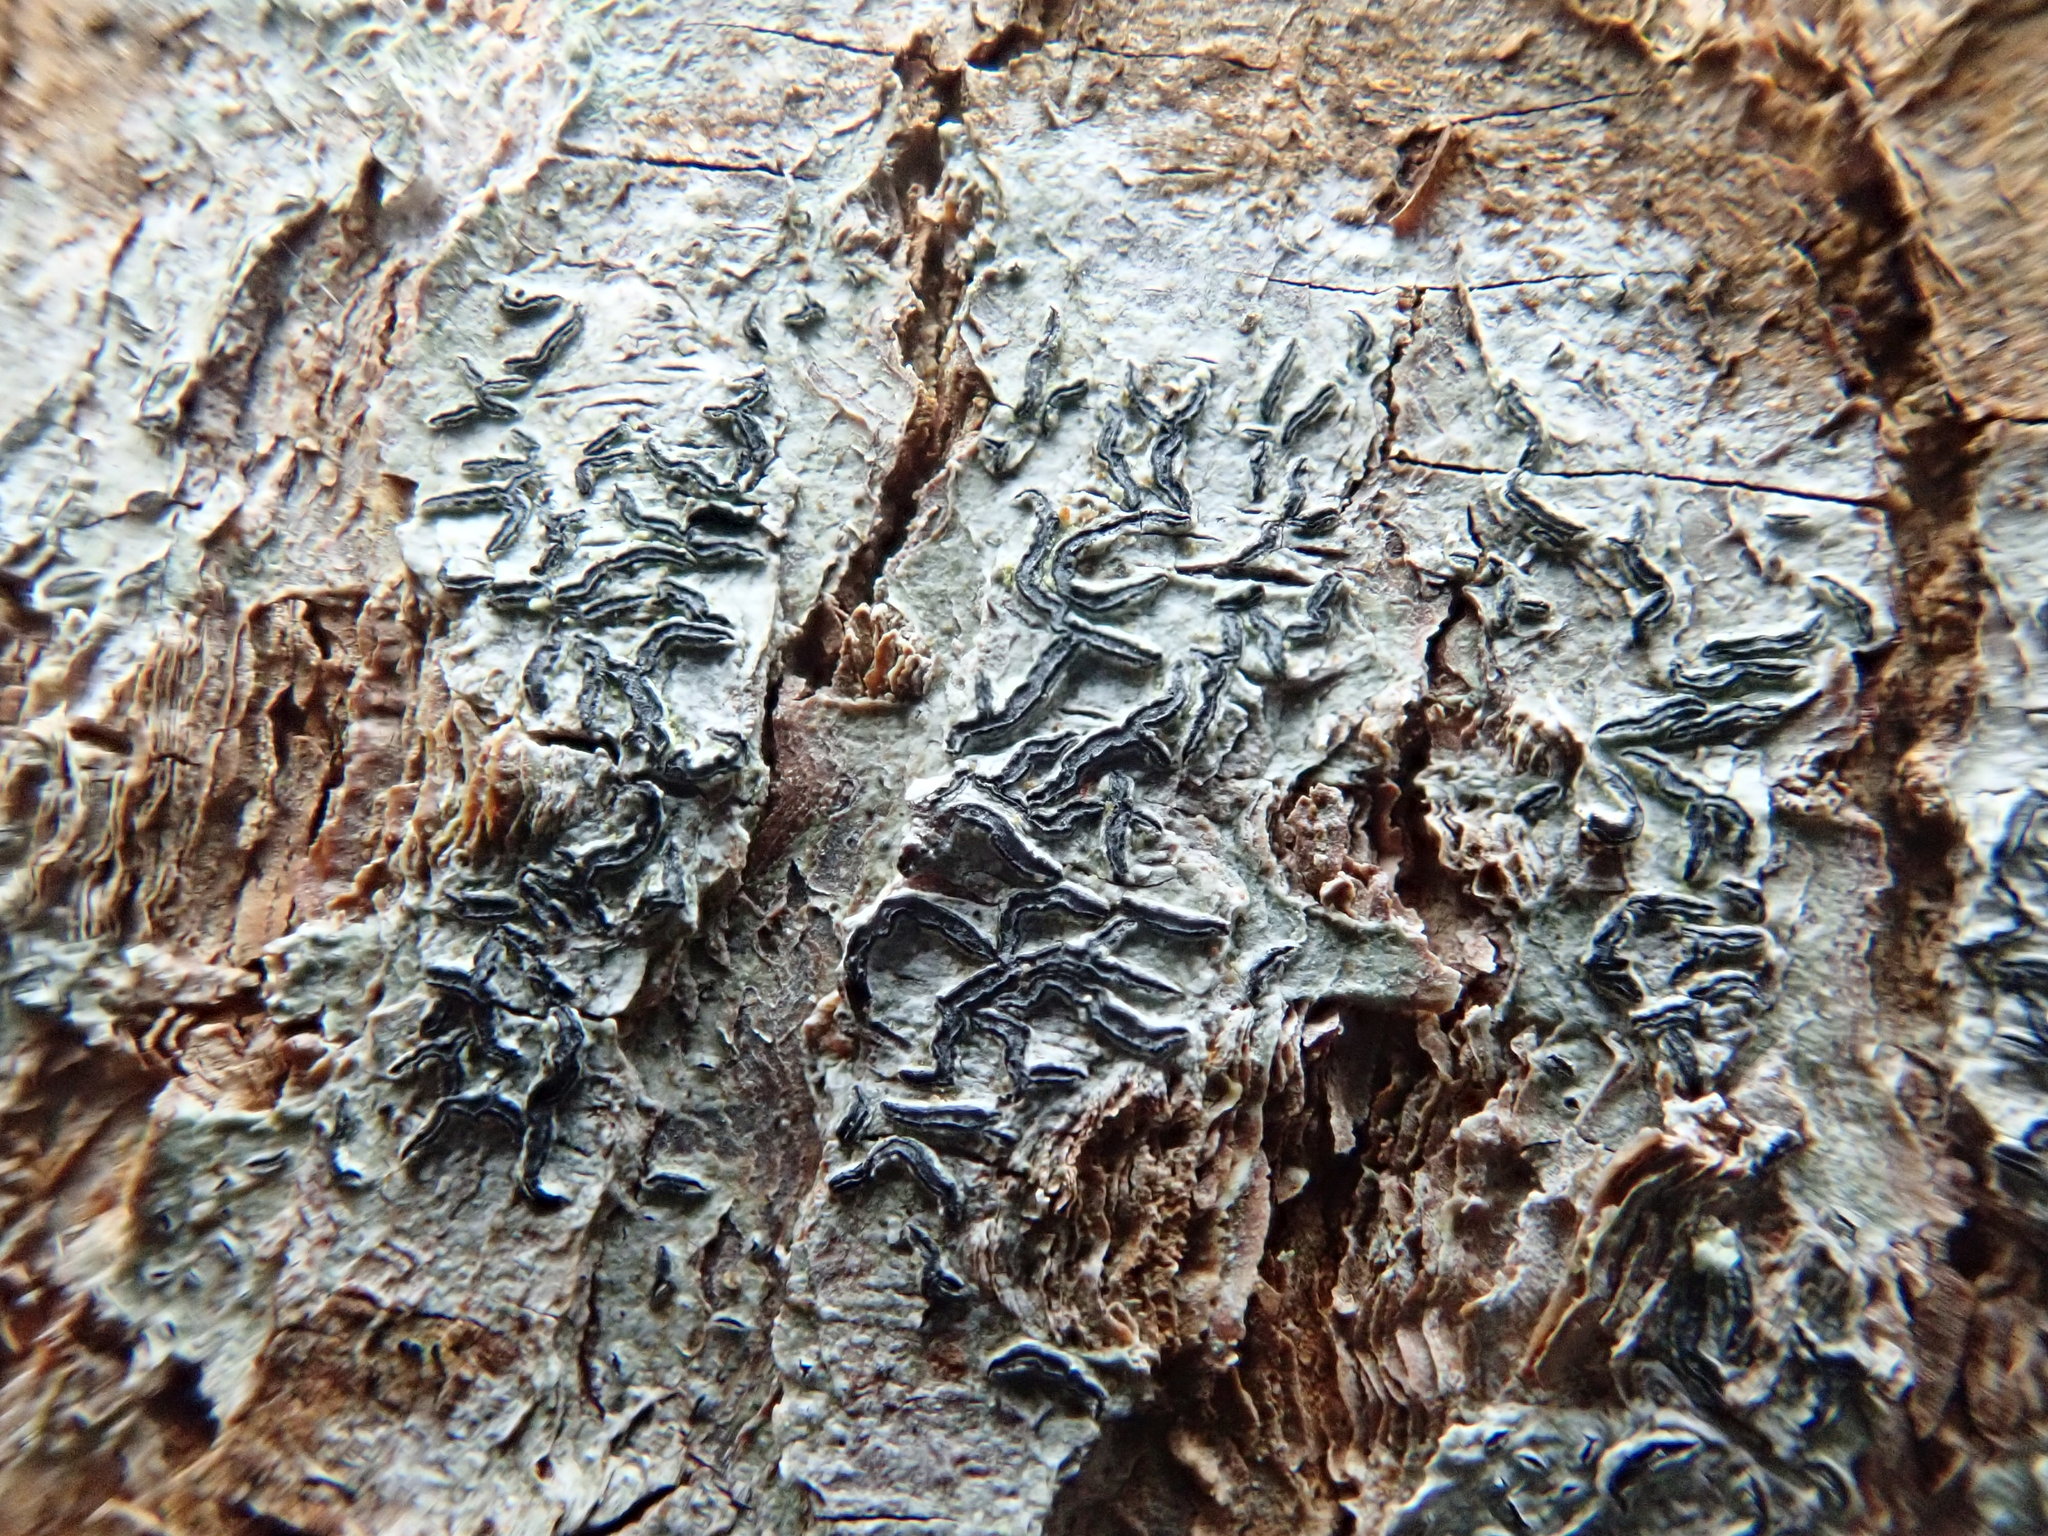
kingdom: Fungi
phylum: Ascomycota
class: Lecanoromycetes
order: Ostropales
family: Graphidaceae
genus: Graphis
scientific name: Graphis scripta
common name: Script lichen
